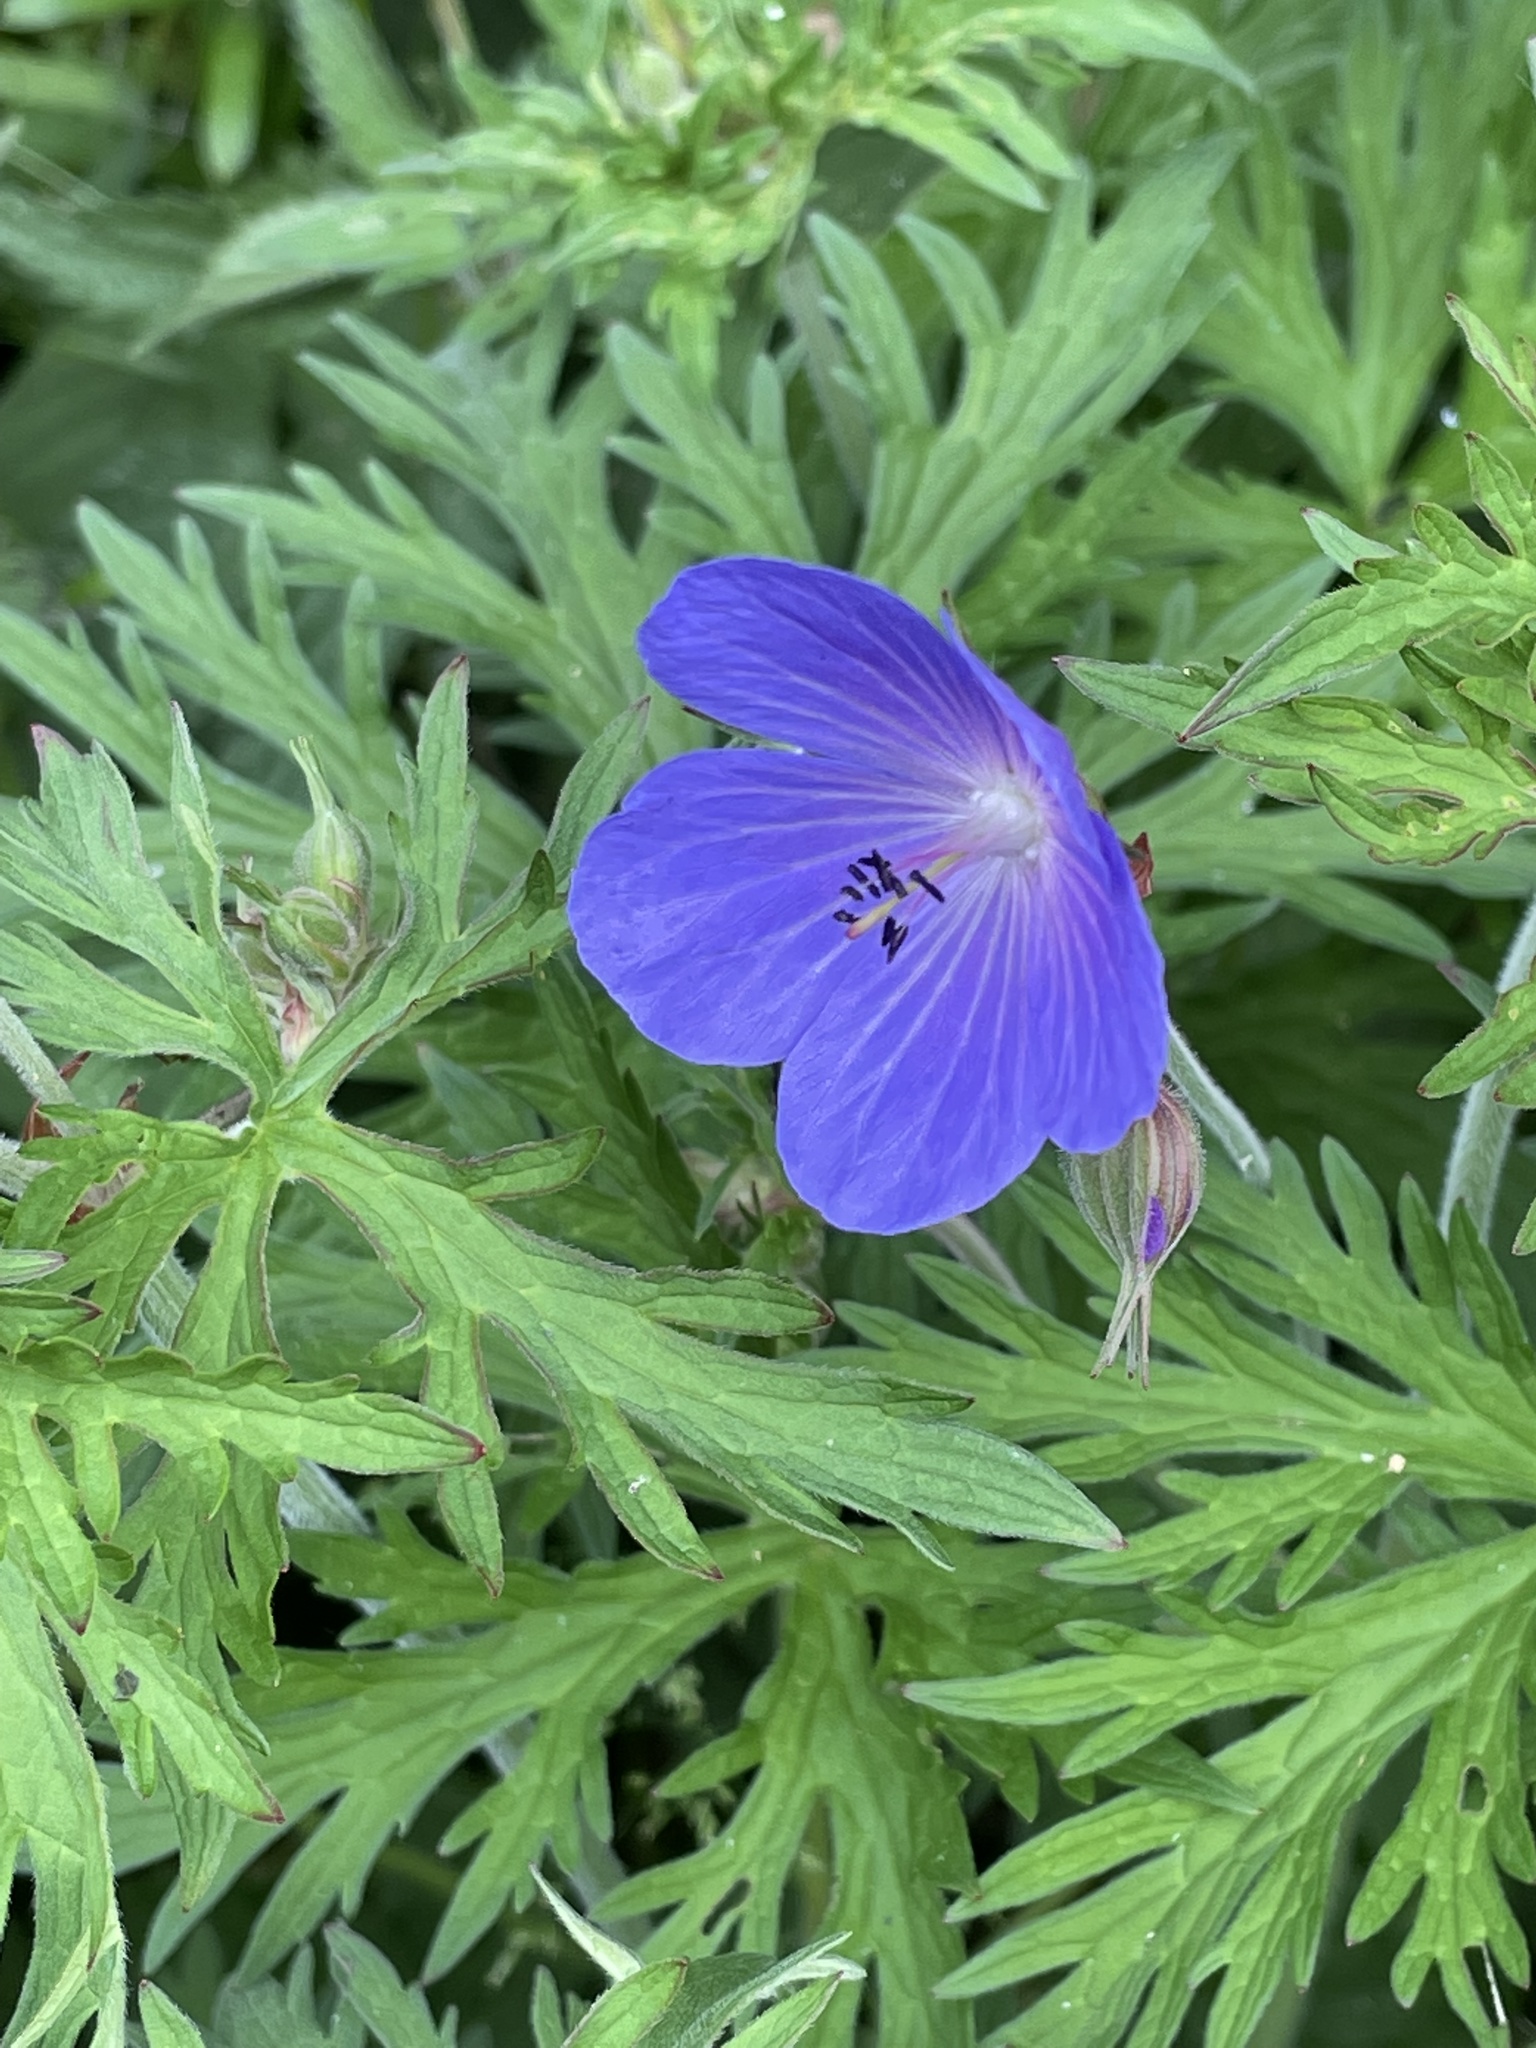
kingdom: Plantae
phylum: Tracheophyta
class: Magnoliopsida
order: Geraniales
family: Geraniaceae
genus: Geranium
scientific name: Geranium pratense
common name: Meadow crane's-bill
